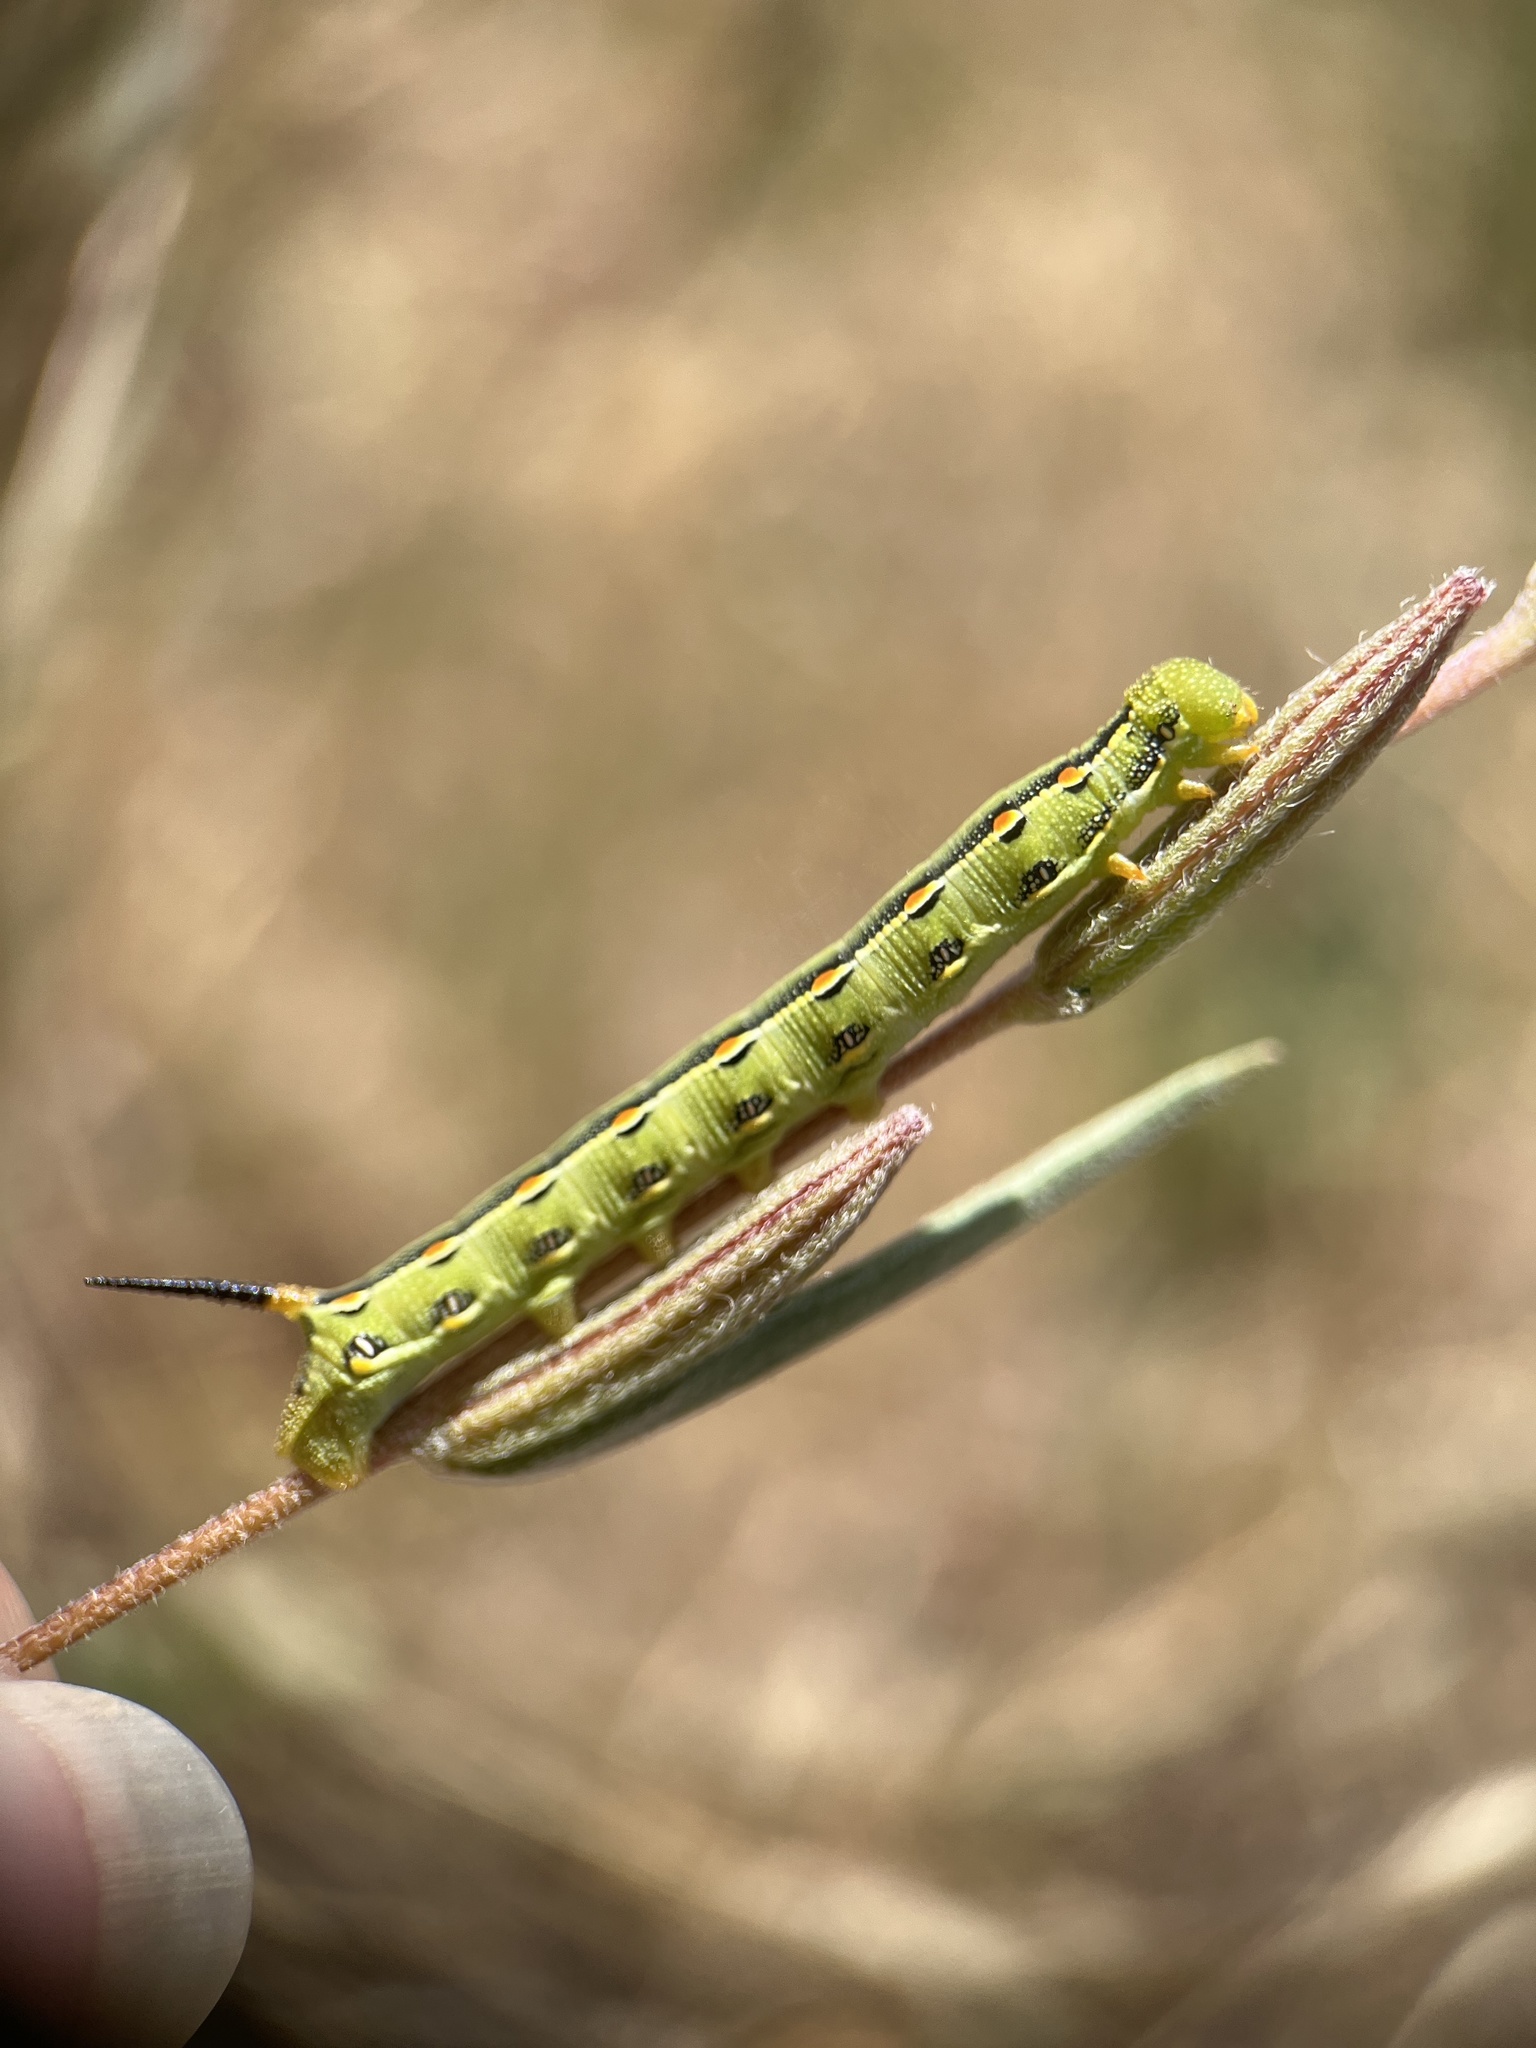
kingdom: Animalia
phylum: Arthropoda
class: Insecta
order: Lepidoptera
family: Sphingidae
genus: Hyles
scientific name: Hyles lineata
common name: White-lined sphinx
